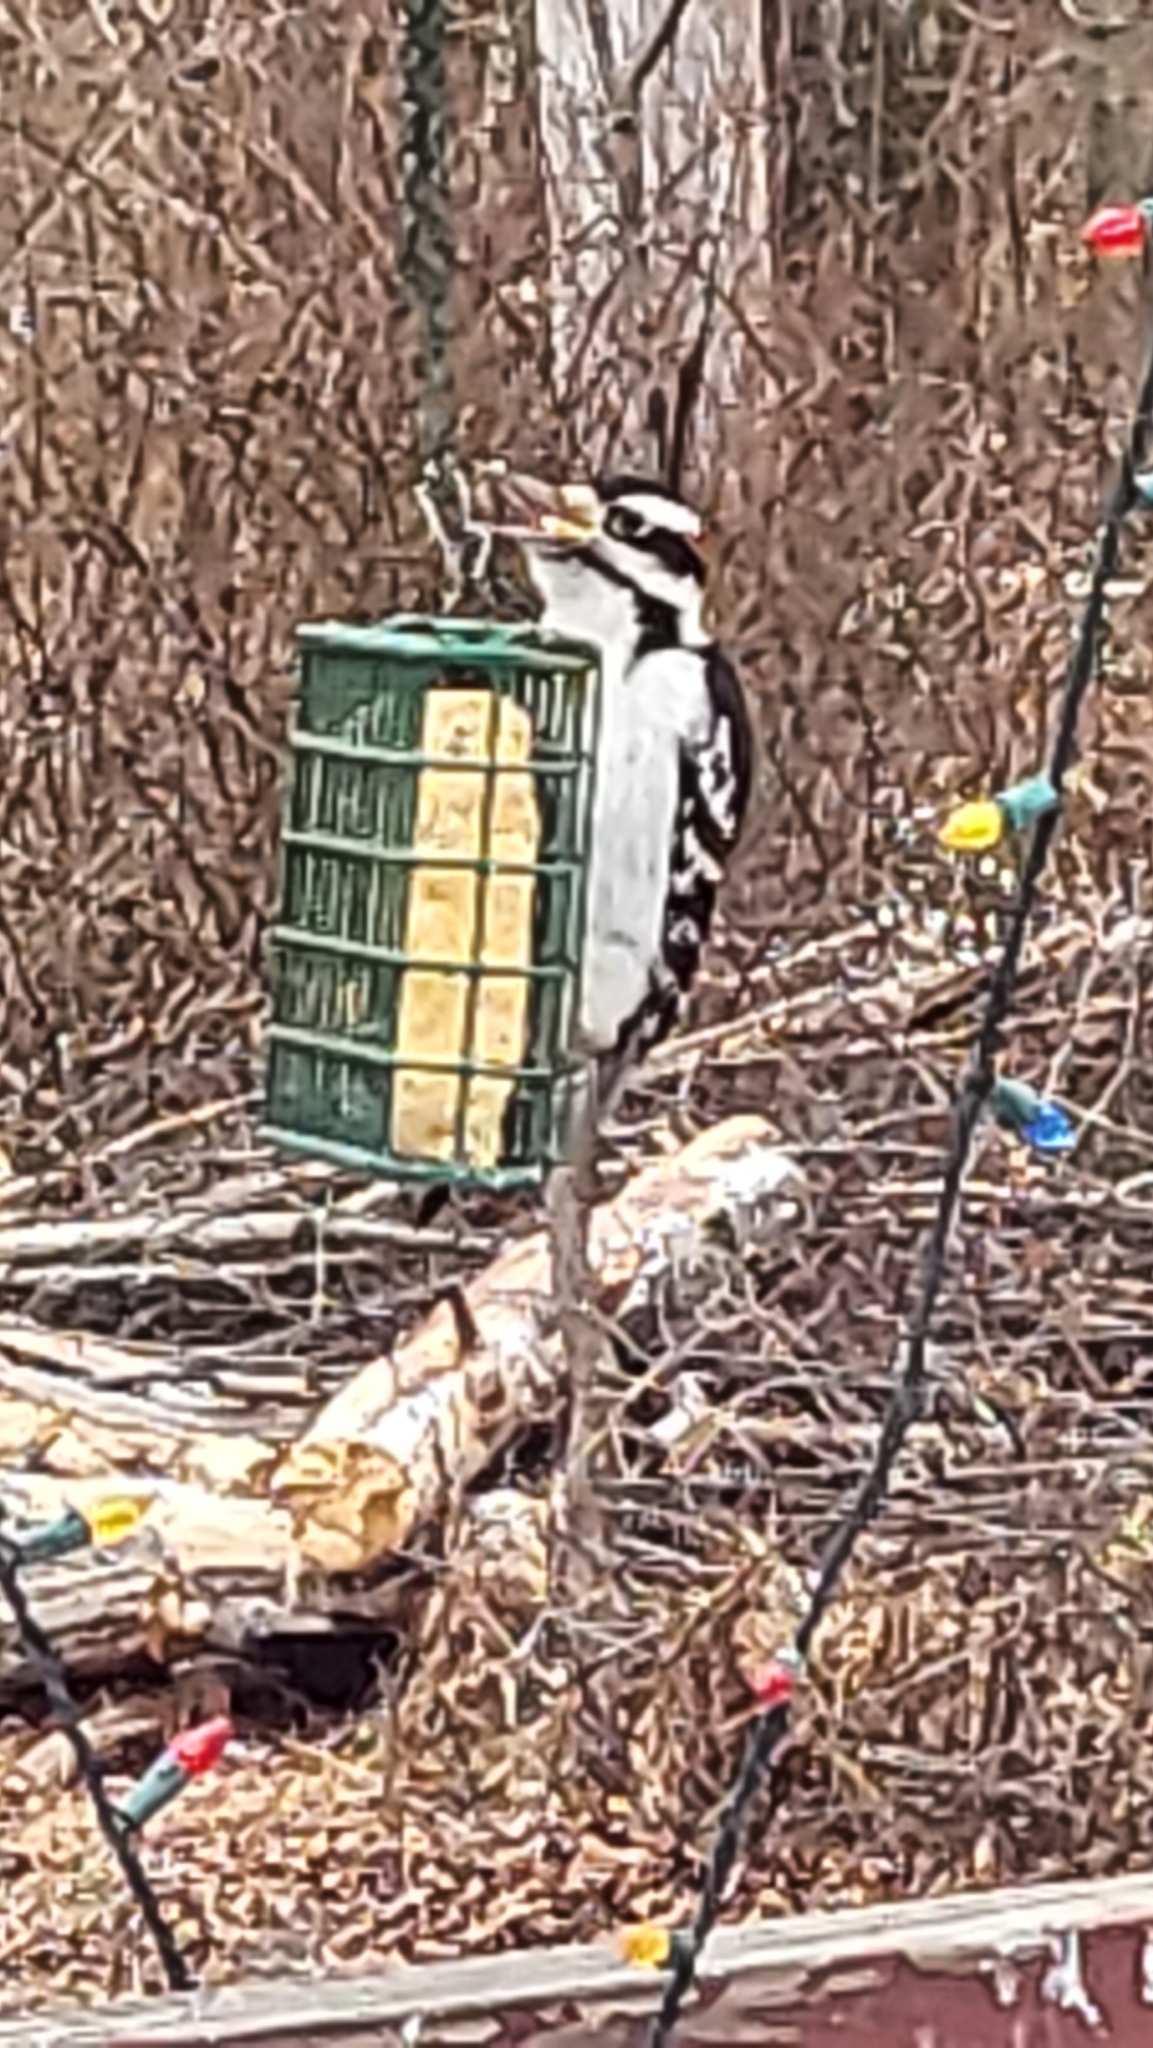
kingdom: Animalia
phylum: Chordata
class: Aves
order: Piciformes
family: Picidae
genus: Leuconotopicus
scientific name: Leuconotopicus villosus
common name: Hairy woodpecker
